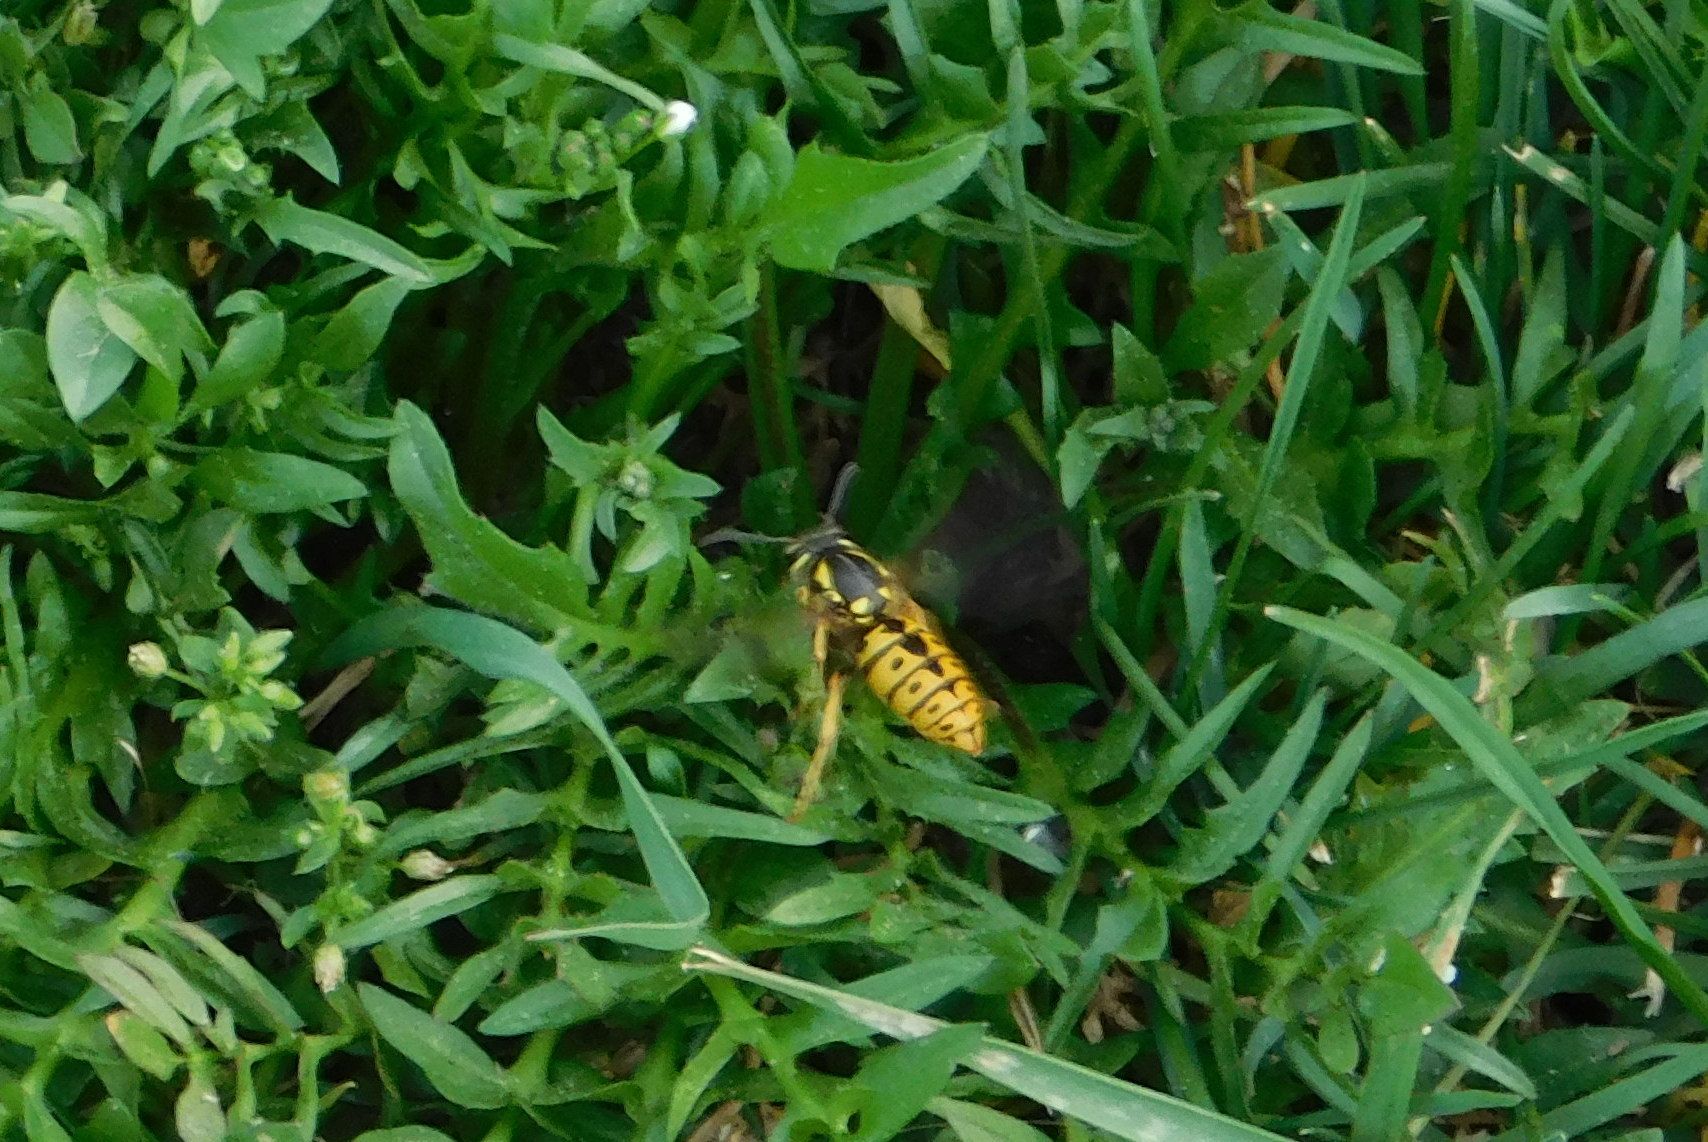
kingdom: Animalia
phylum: Arthropoda
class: Insecta
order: Hymenoptera
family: Vespidae
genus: Vespula
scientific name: Vespula germanica
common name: German wasp
